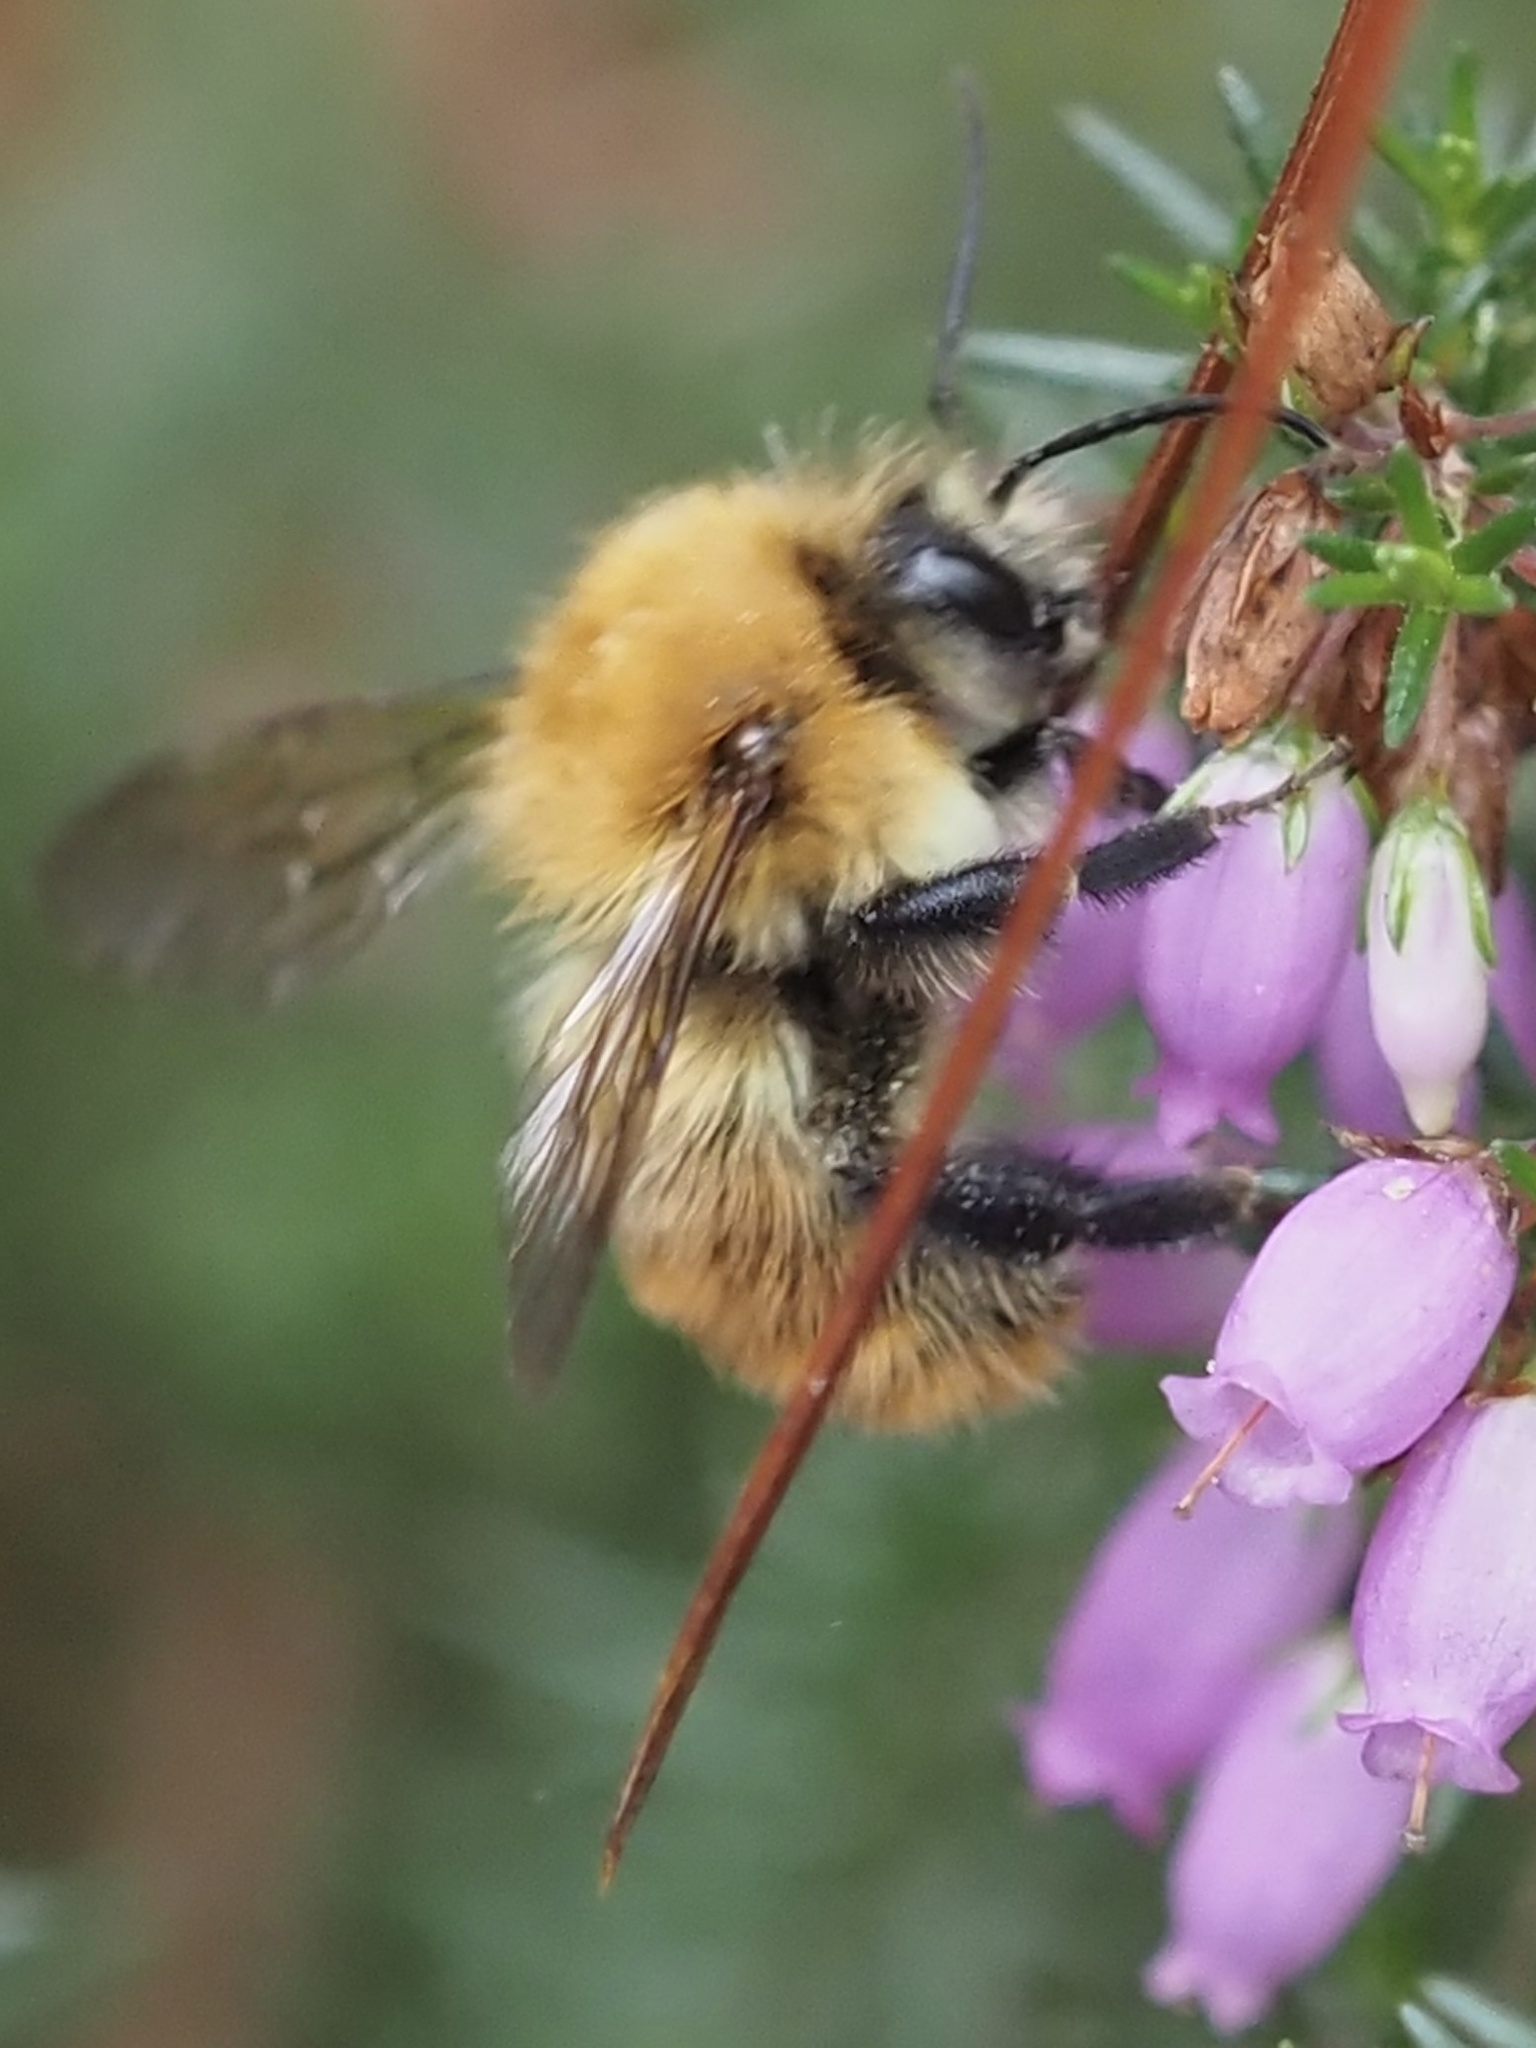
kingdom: Animalia
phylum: Arthropoda
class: Insecta
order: Hymenoptera
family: Apidae
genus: Bombus
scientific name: Bombus pascuorum
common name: Common carder bee
